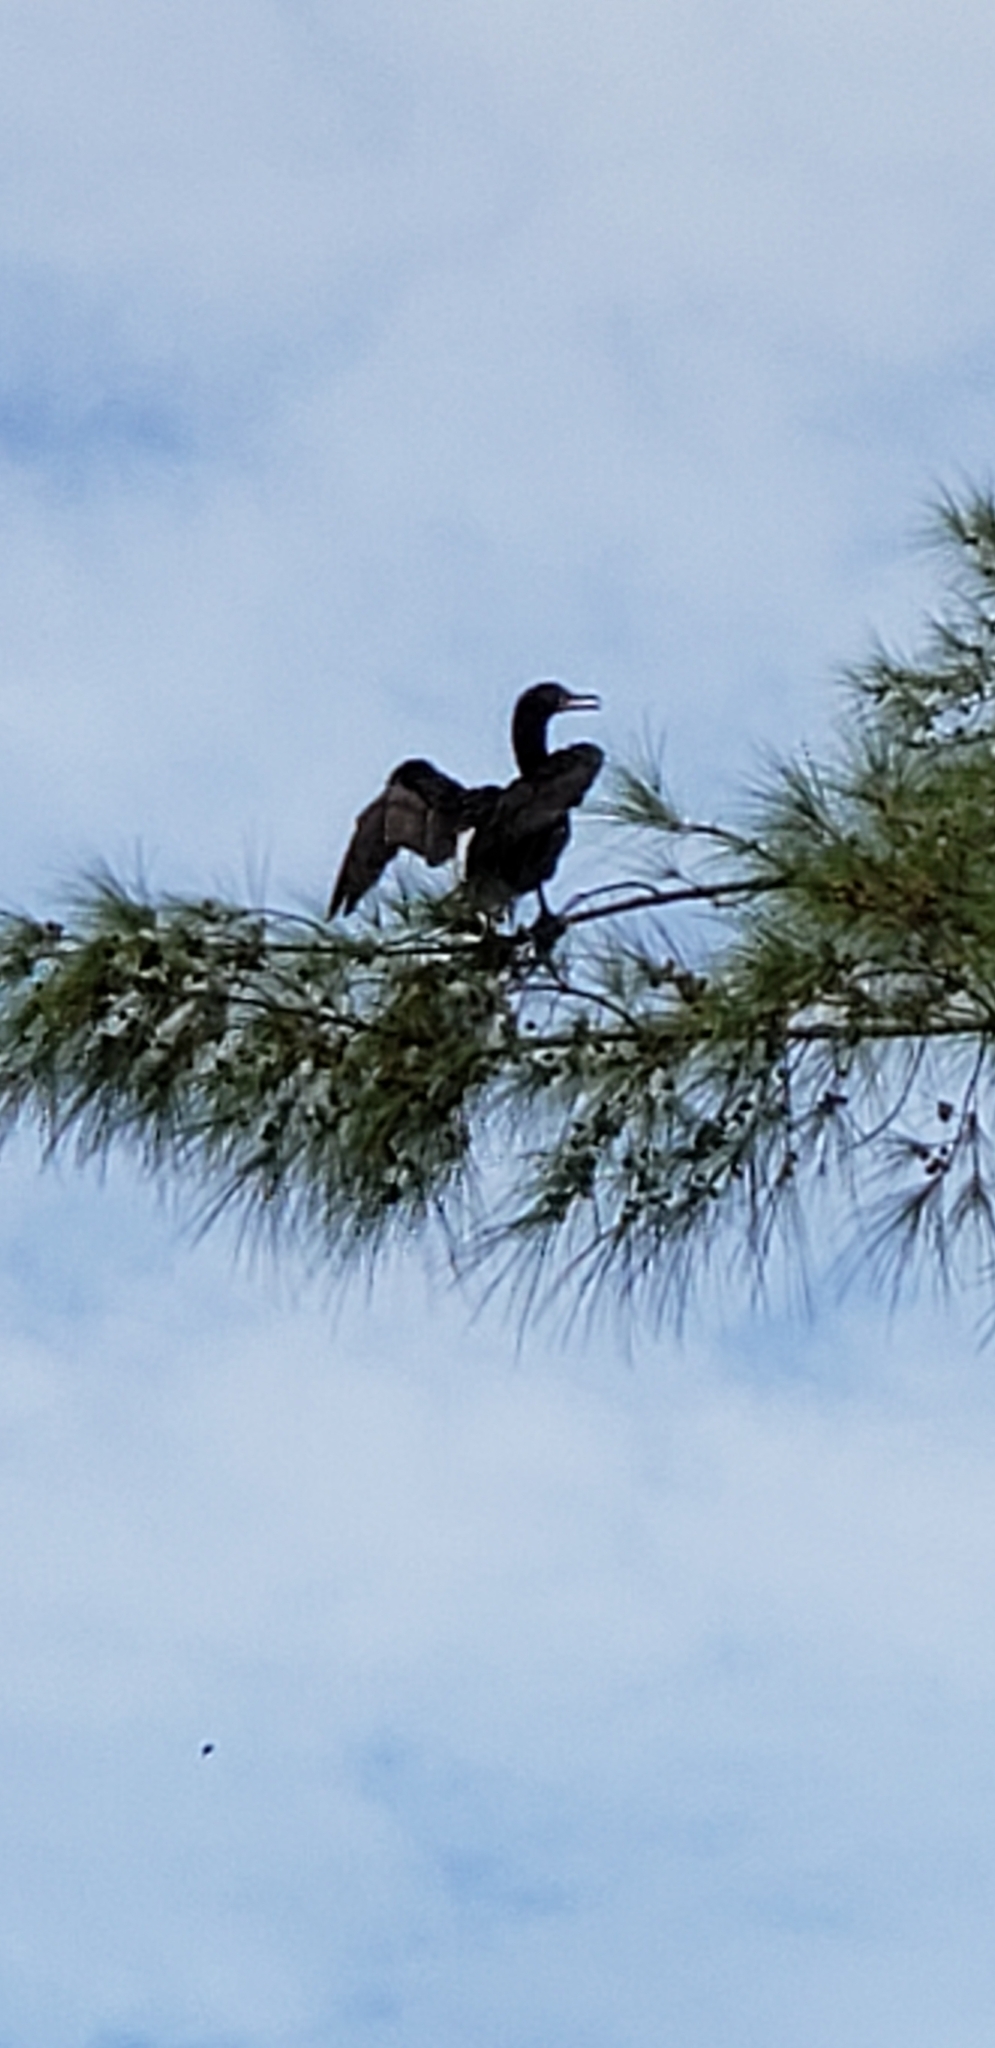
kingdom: Animalia
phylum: Chordata
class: Aves
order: Suliformes
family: Phalacrocoracidae
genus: Phalacrocorax
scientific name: Phalacrocorax auritus
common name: Double-crested cormorant
